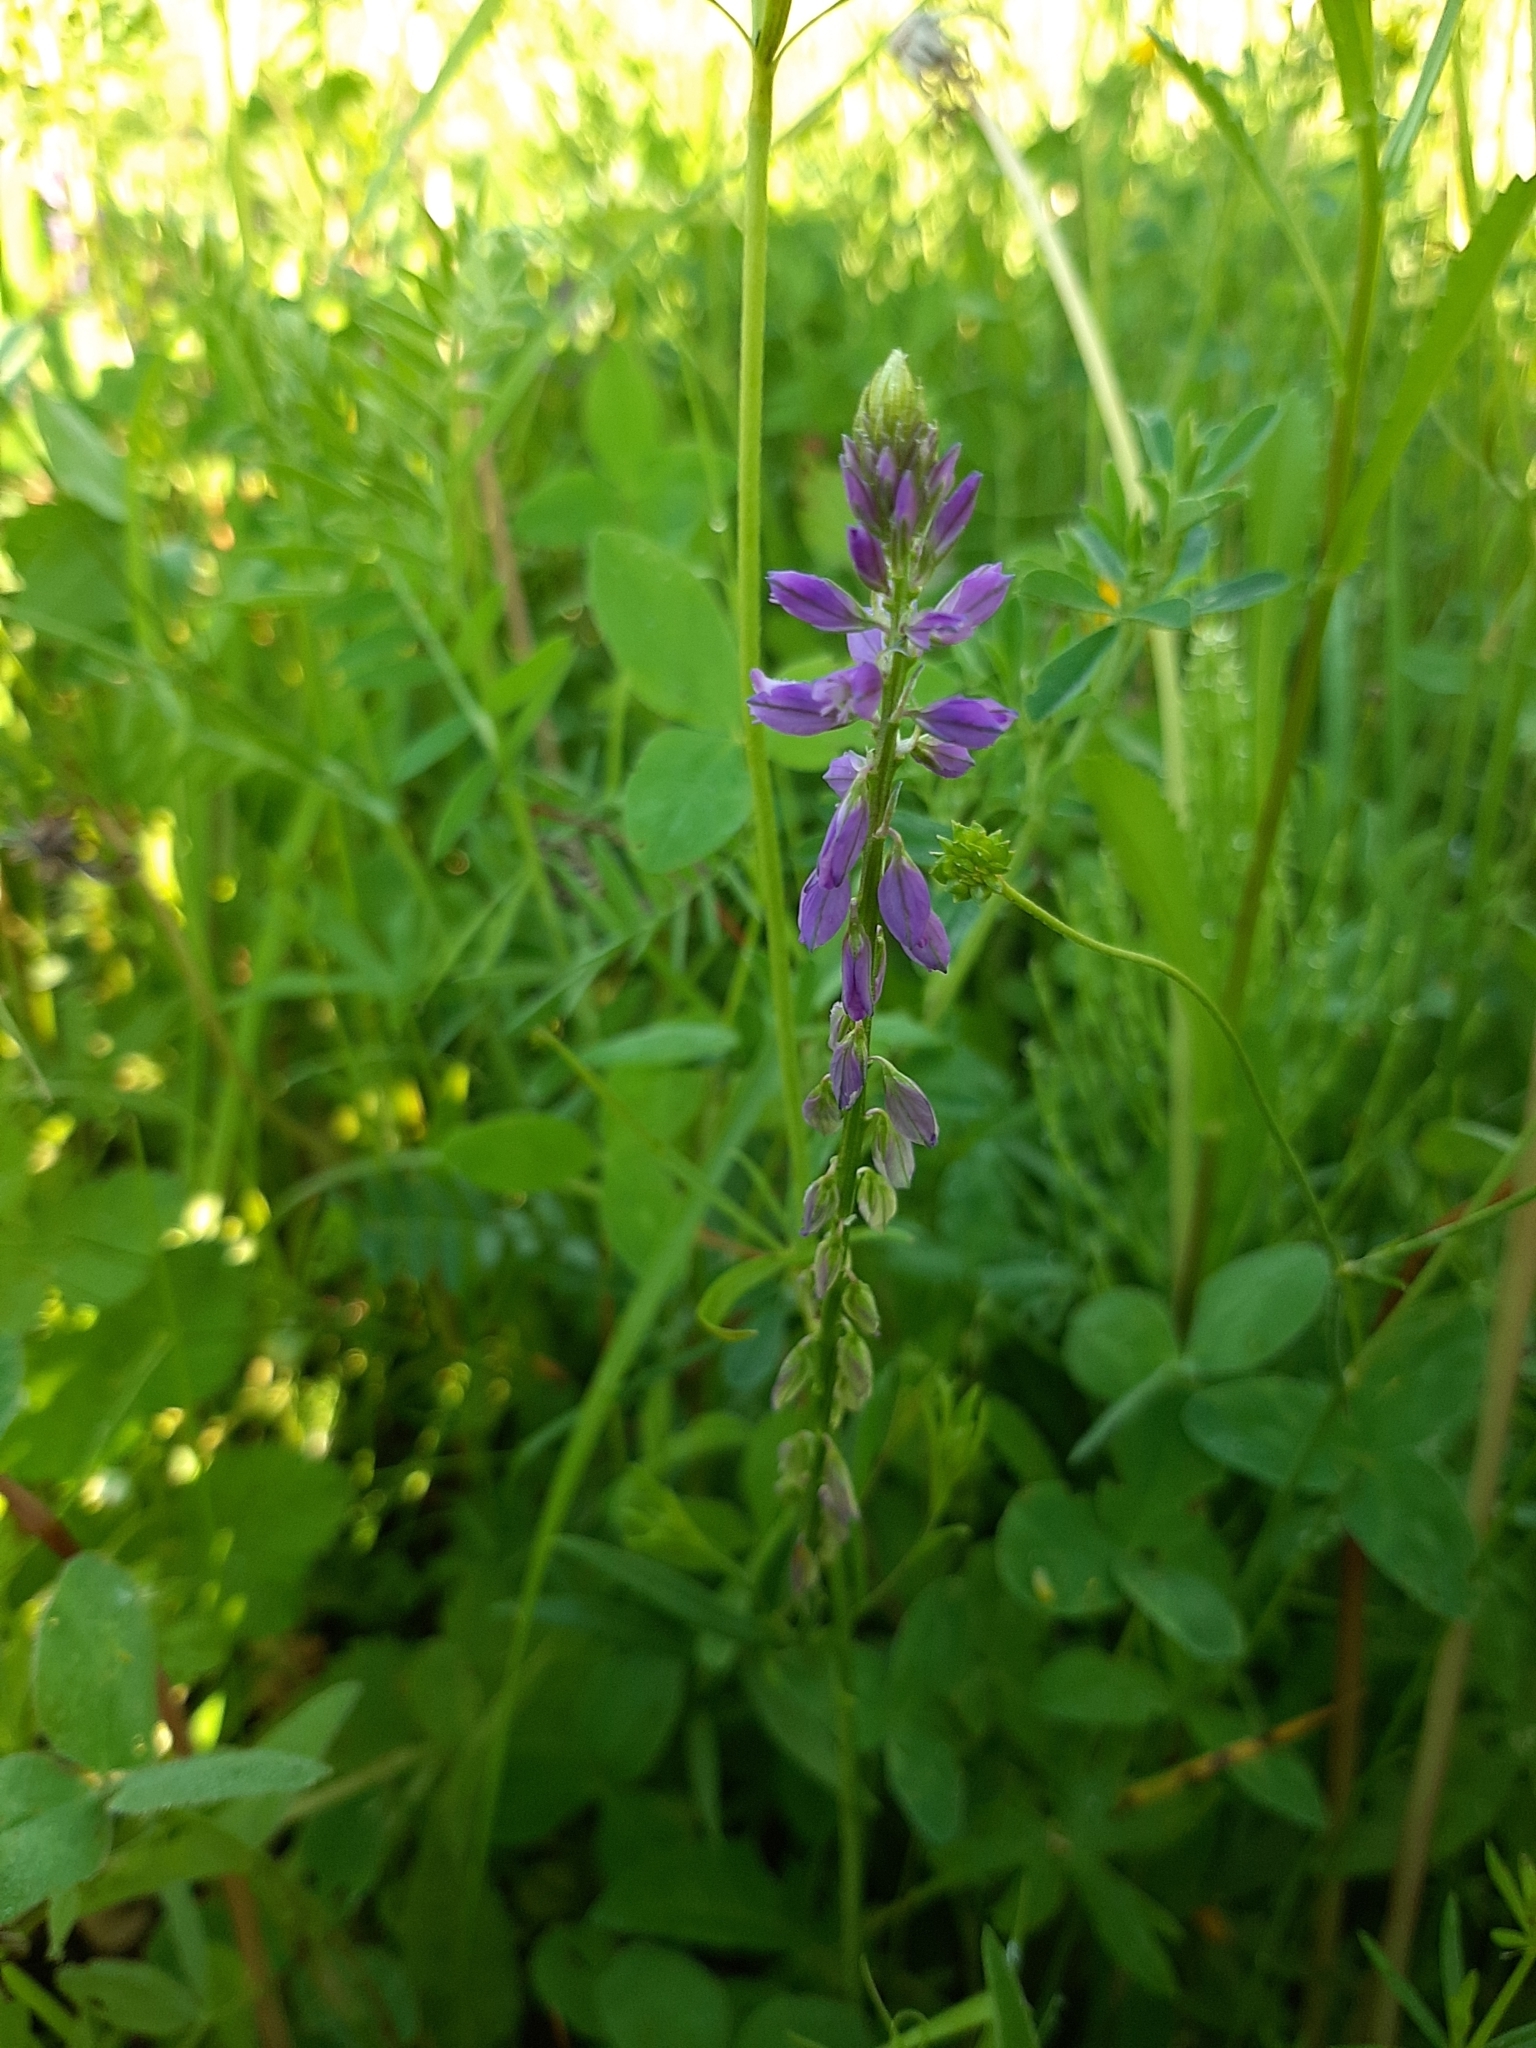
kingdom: Plantae
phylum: Tracheophyta
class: Magnoliopsida
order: Fabales
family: Polygalaceae
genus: Polygala
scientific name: Polygala comosa
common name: Tufted milkwort
